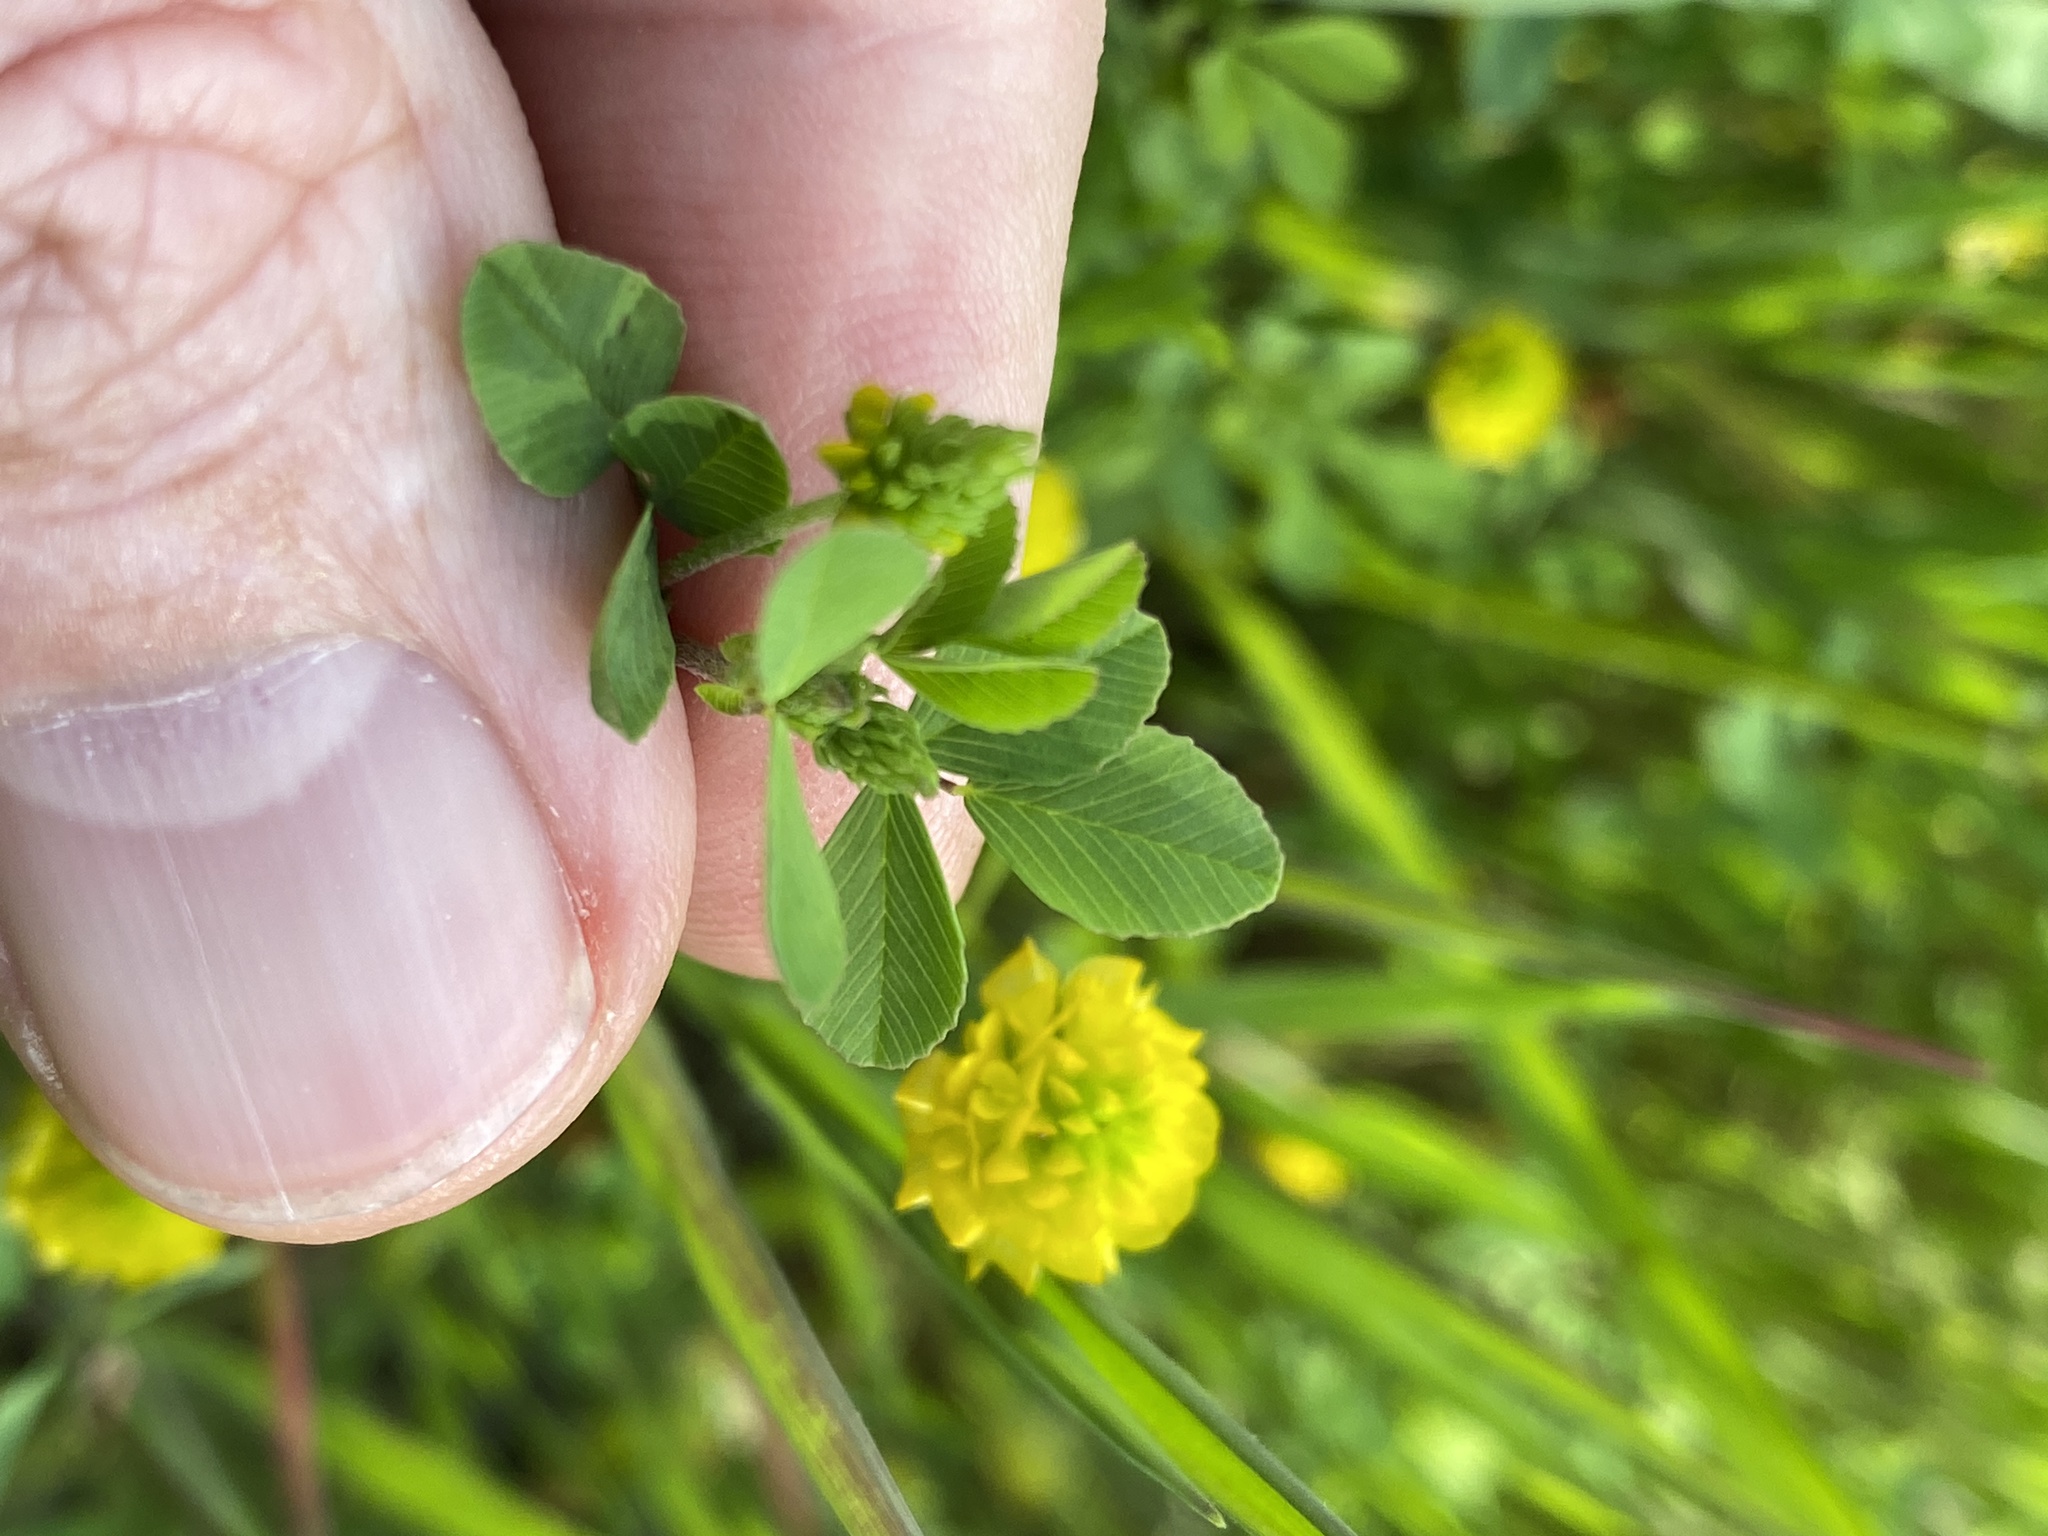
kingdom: Plantae
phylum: Tracheophyta
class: Magnoliopsida
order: Fabales
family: Fabaceae
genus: Trifolium
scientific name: Trifolium campestre
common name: Field clover
